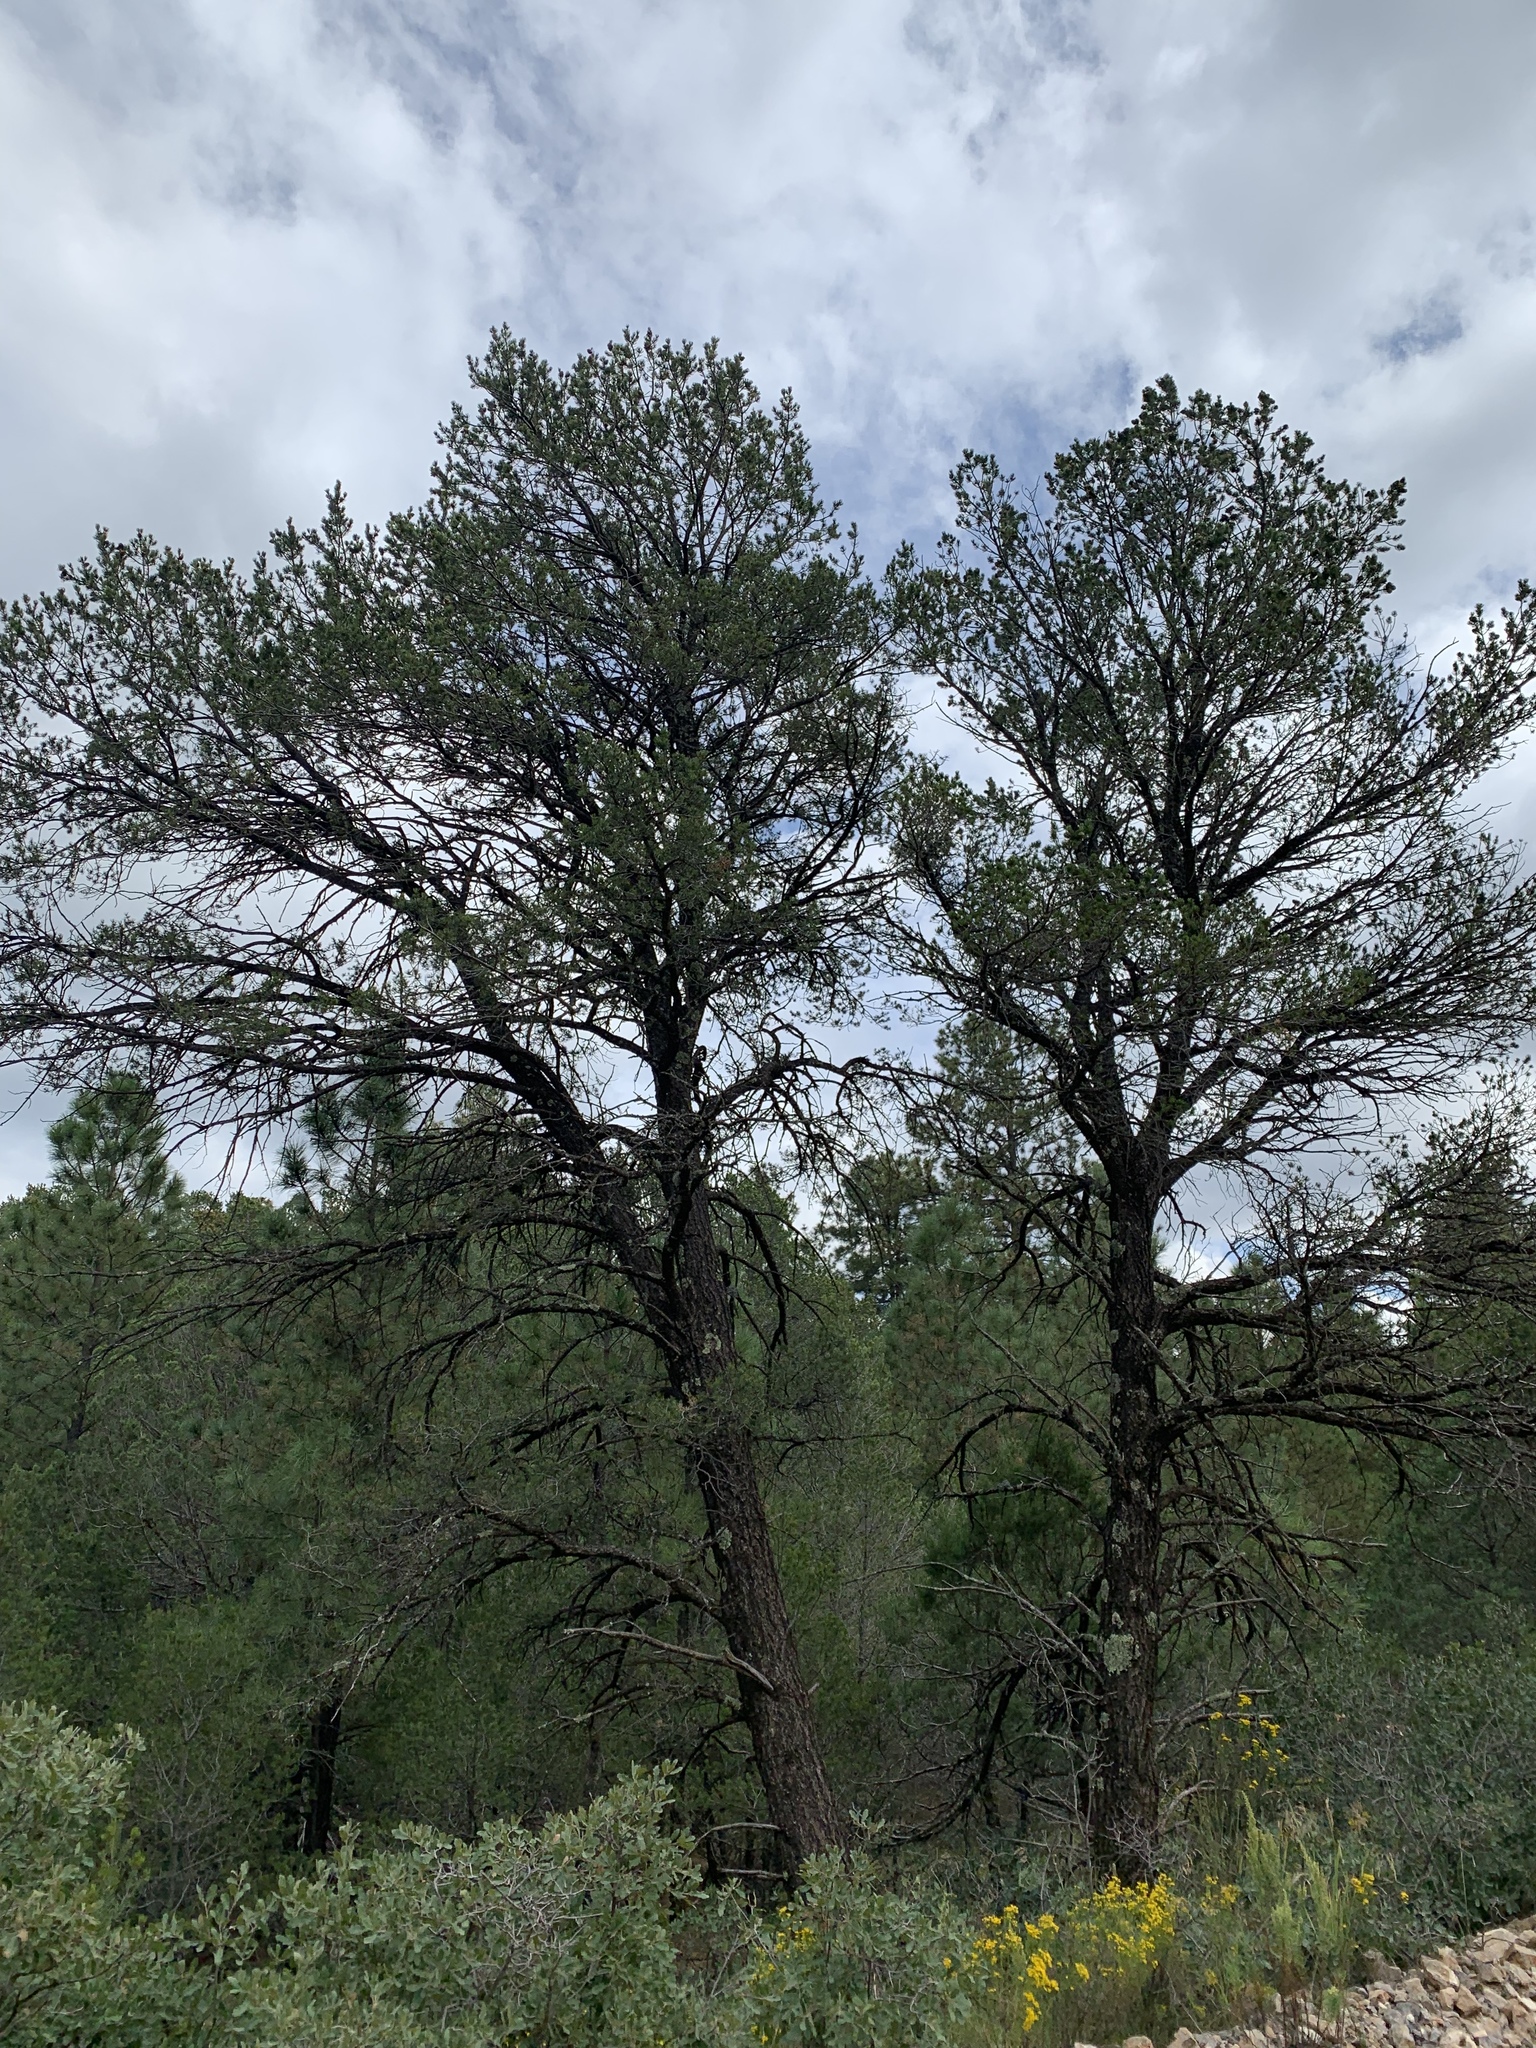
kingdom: Plantae
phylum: Tracheophyta
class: Pinopsida
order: Pinales
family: Pinaceae
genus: Pinus
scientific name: Pinus edulis
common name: Colorado pinyon
